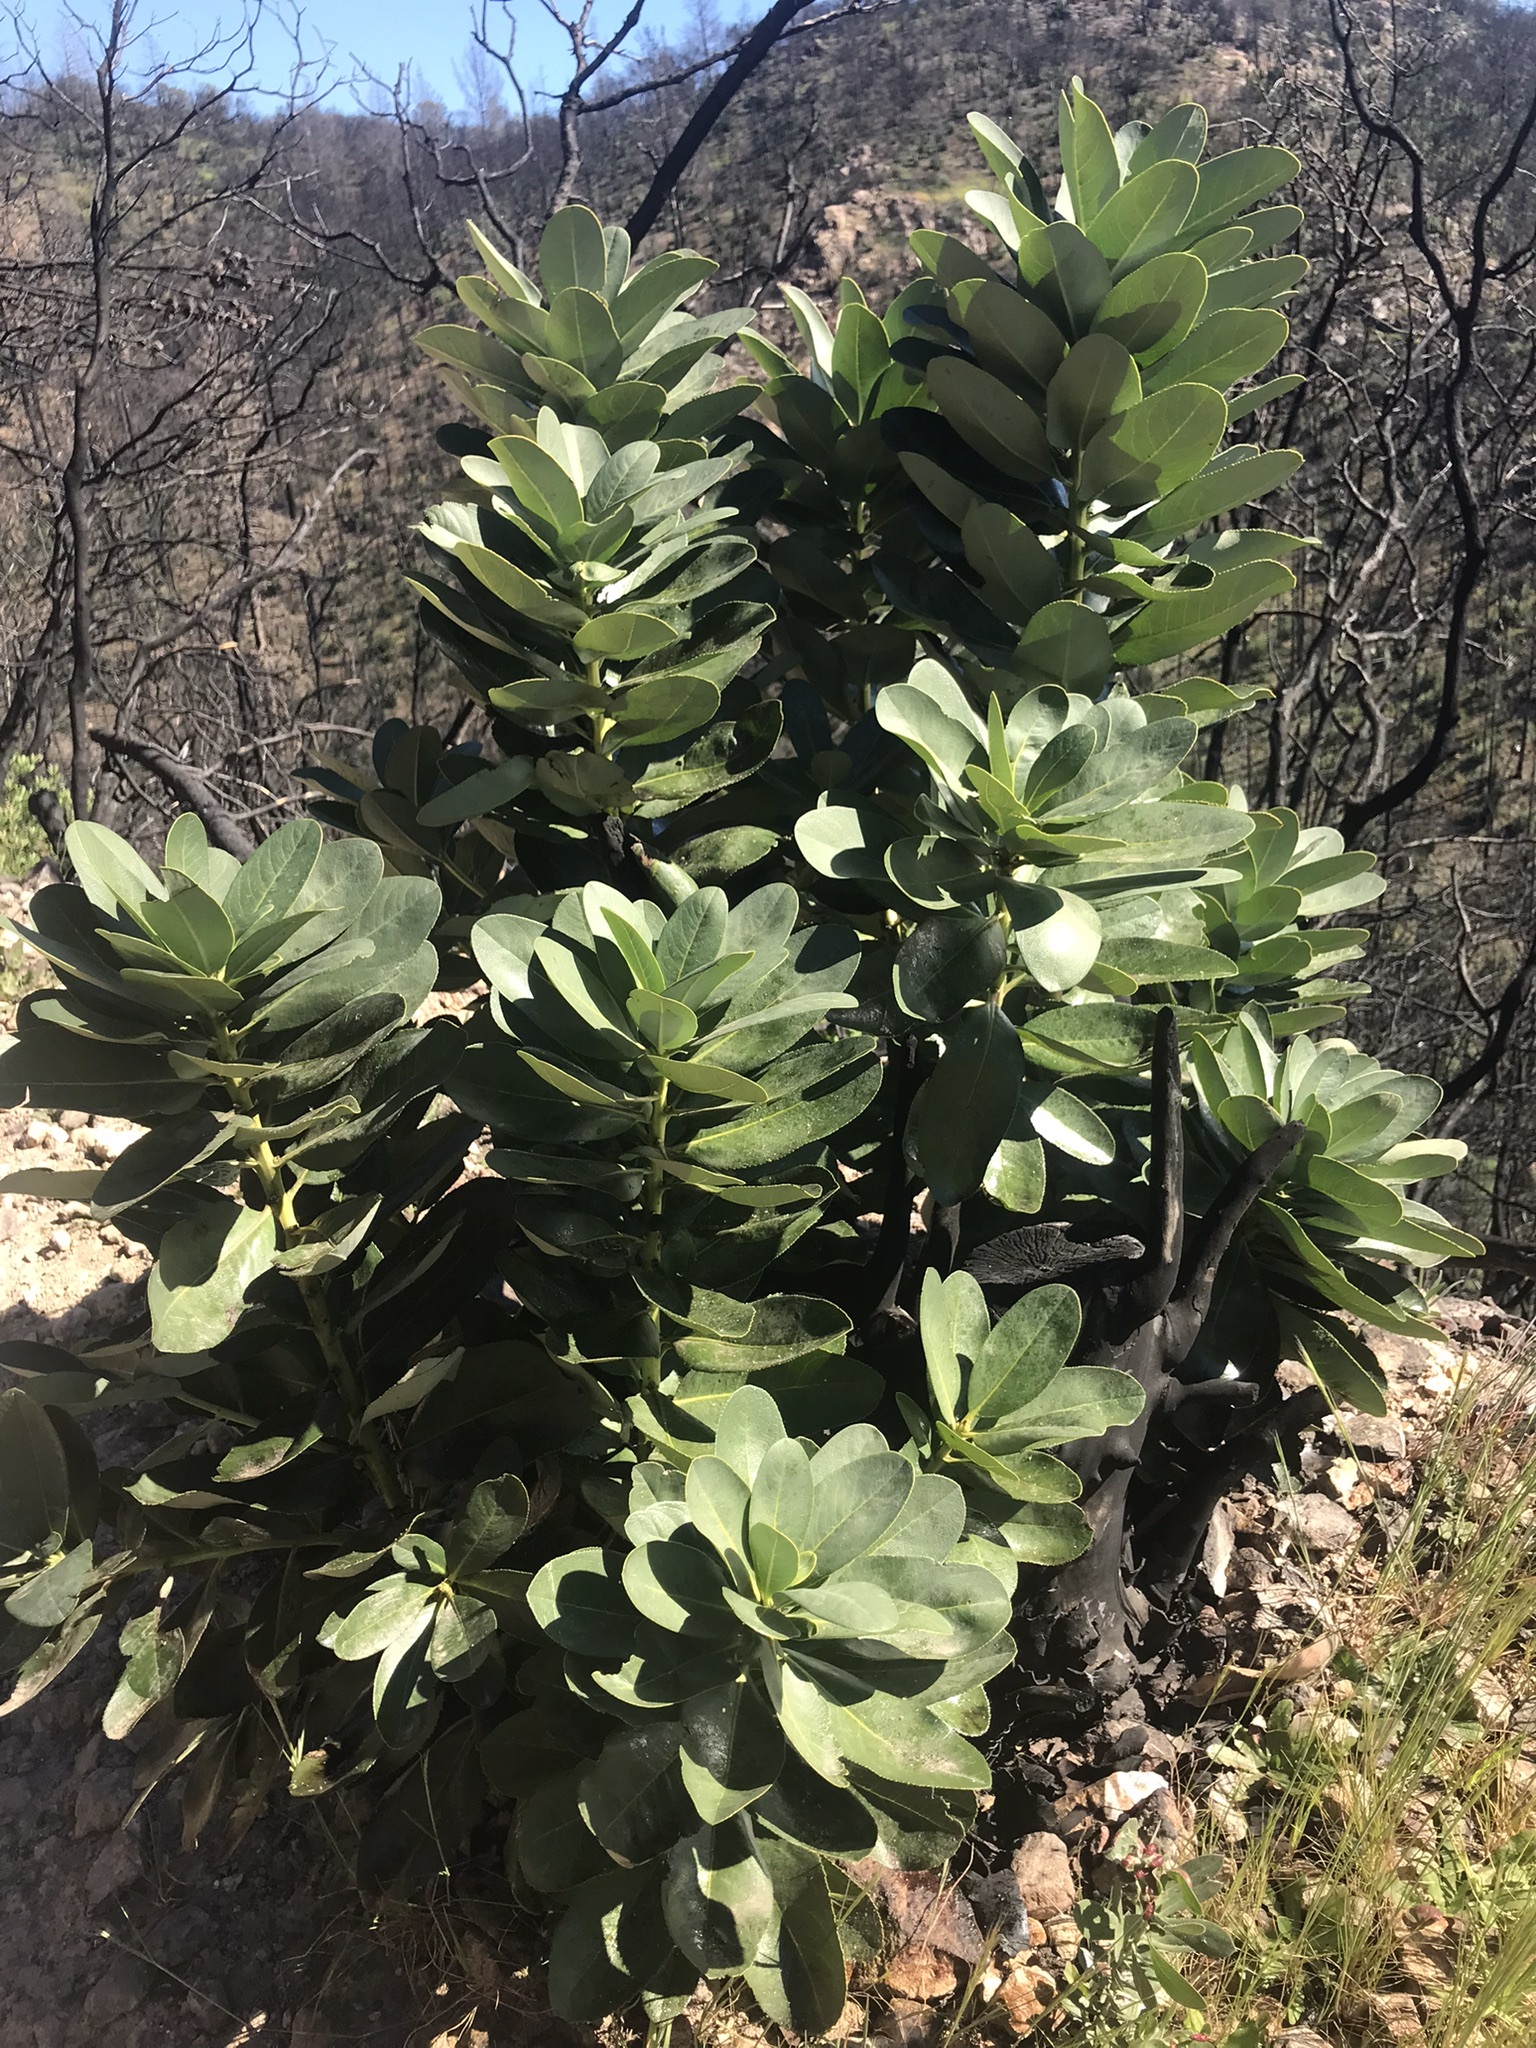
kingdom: Plantae
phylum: Tracheophyta
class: Magnoliopsida
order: Ericales
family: Ericaceae
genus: Arbutus
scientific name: Arbutus menziesii
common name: Pacific madrone
